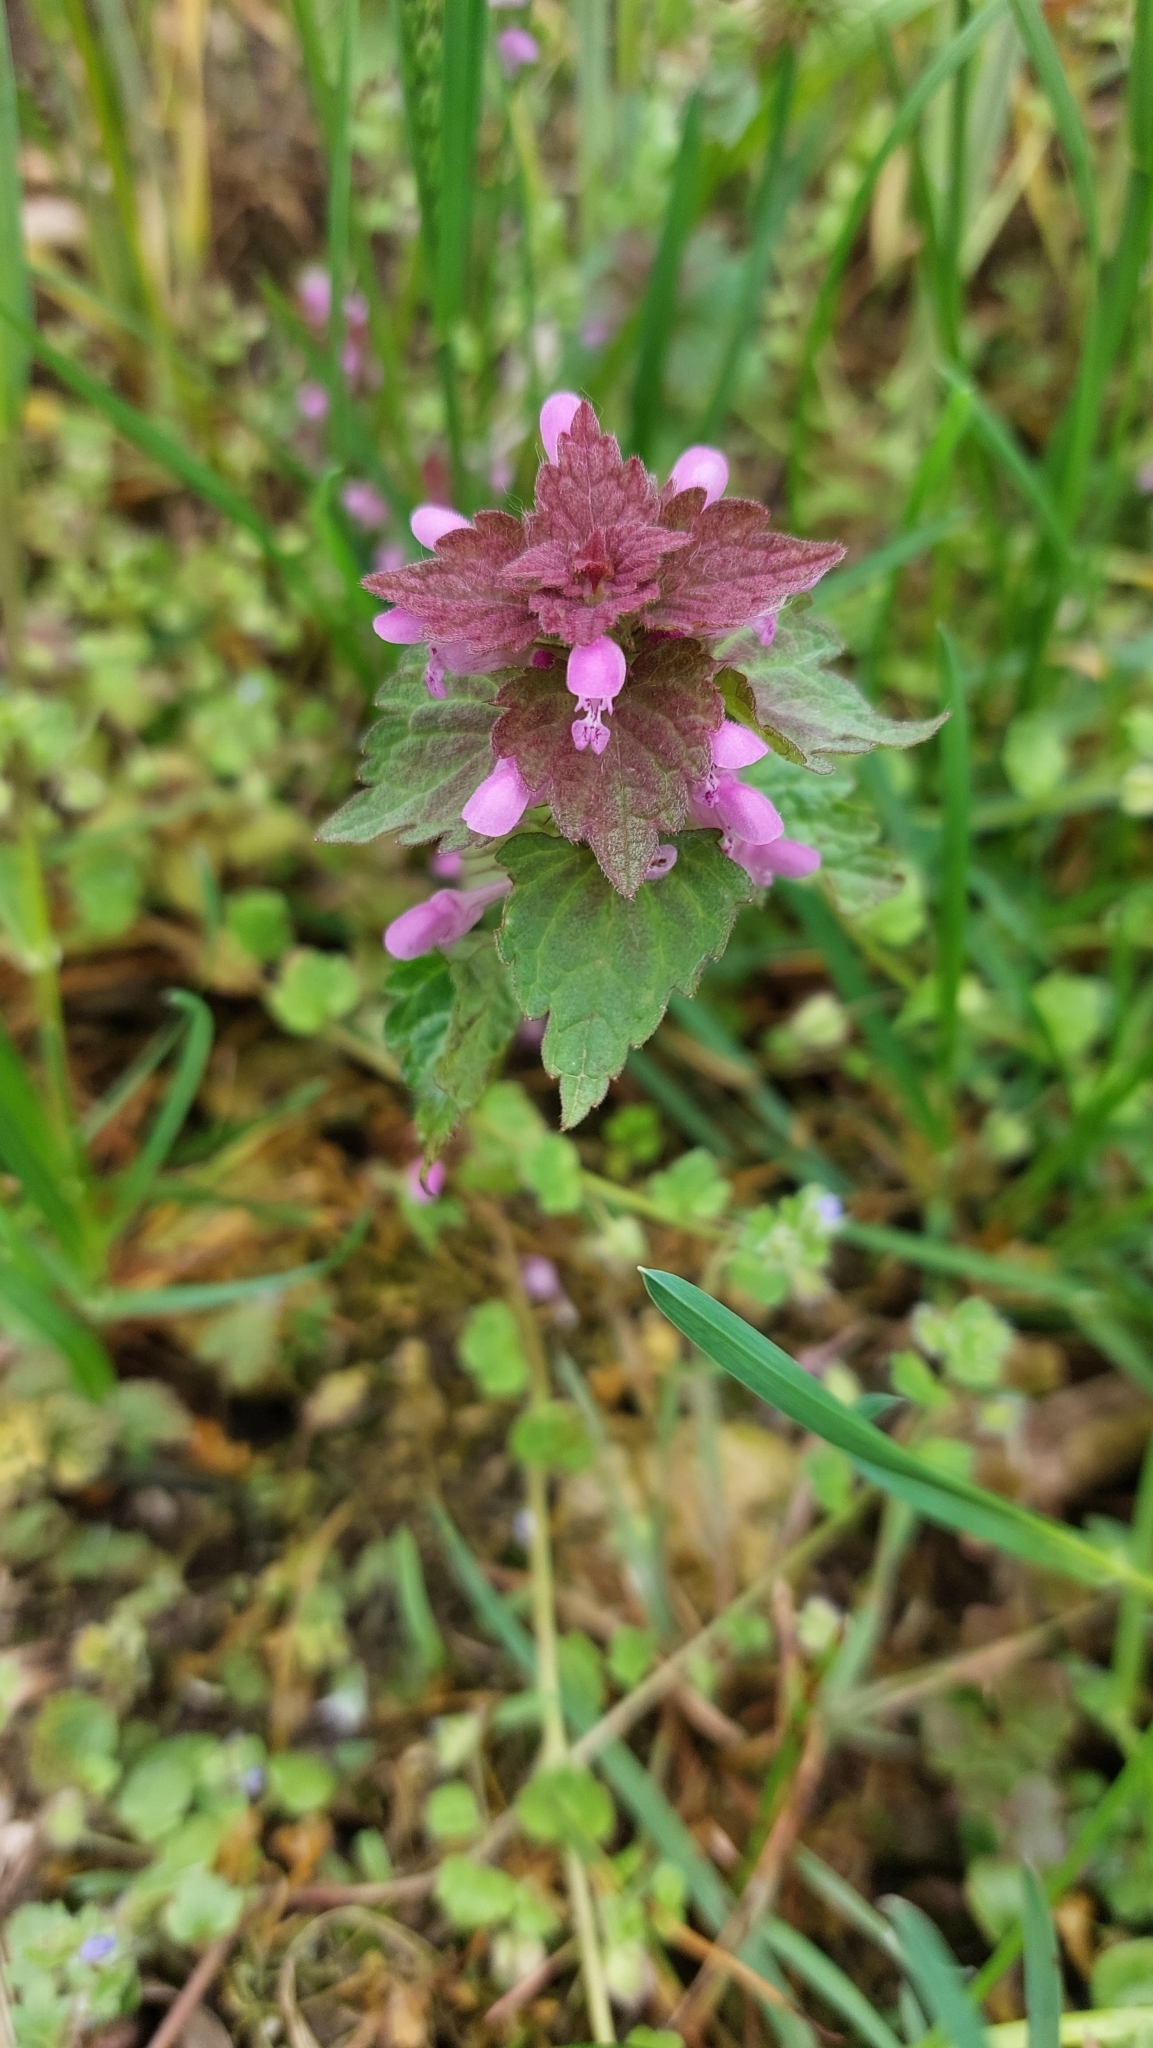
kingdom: Plantae
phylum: Tracheophyta
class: Magnoliopsida
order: Lamiales
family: Lamiaceae
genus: Lamium
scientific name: Lamium purpureum
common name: Red dead-nettle
